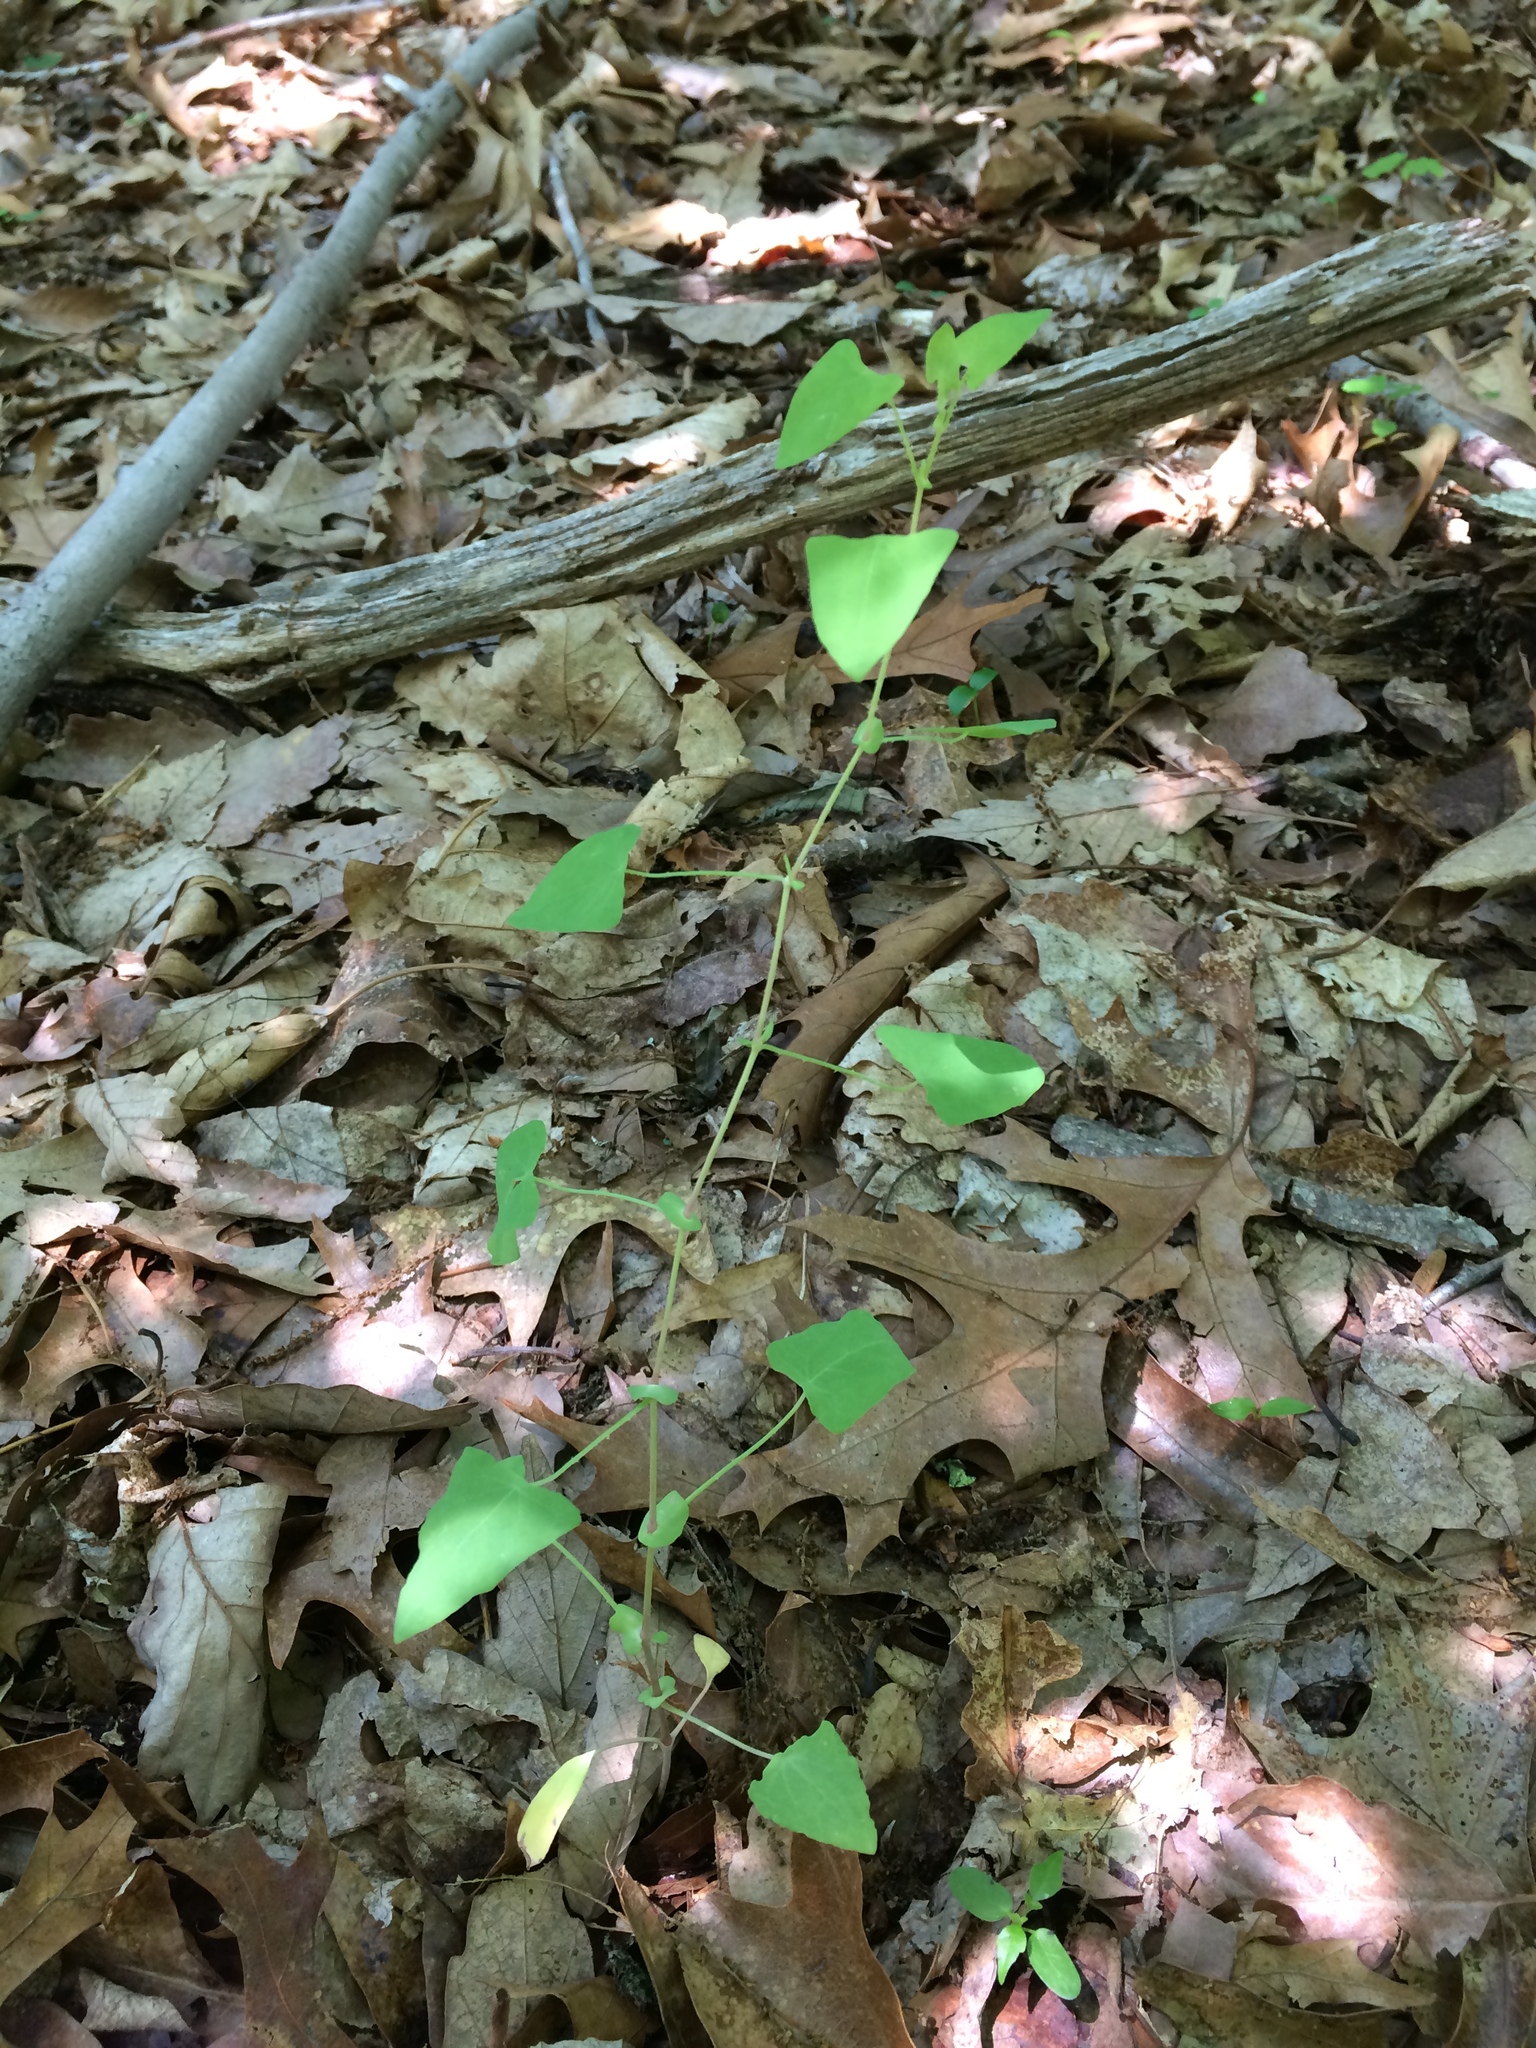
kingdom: Plantae
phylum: Tracheophyta
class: Magnoliopsida
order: Caryophyllales
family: Polygonaceae
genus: Persicaria
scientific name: Persicaria perfoliata
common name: Asiatic tearthumb
